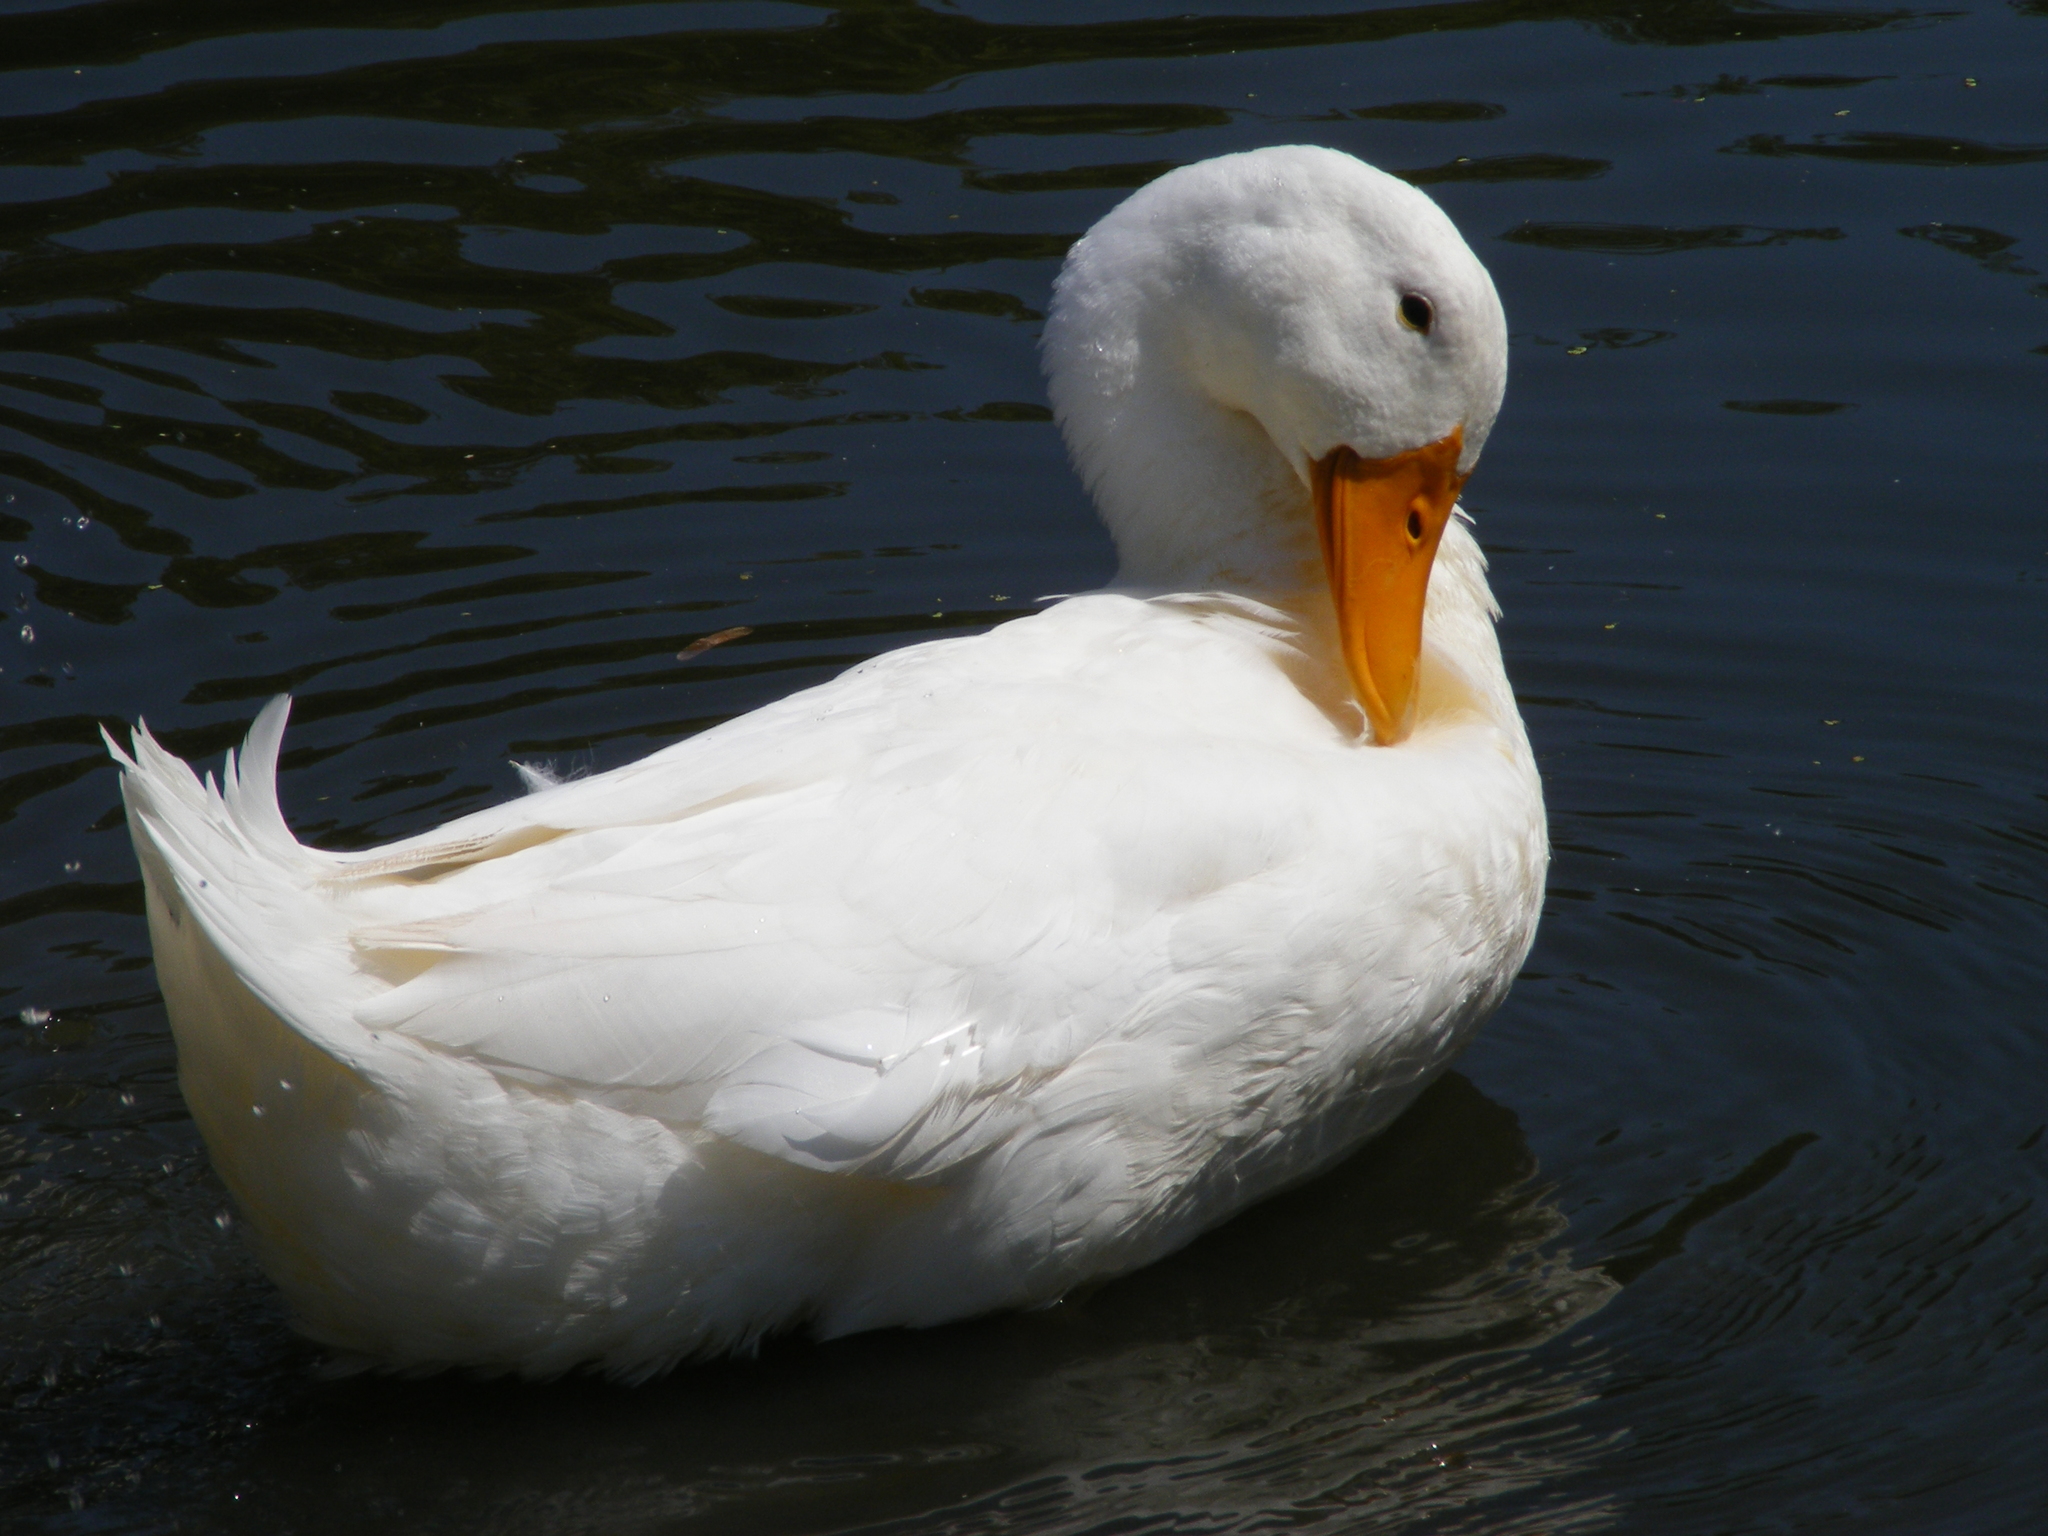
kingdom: Animalia
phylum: Chordata
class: Aves
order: Anseriformes
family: Anatidae
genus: Anas
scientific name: Anas platyrhynchos
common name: Mallard
